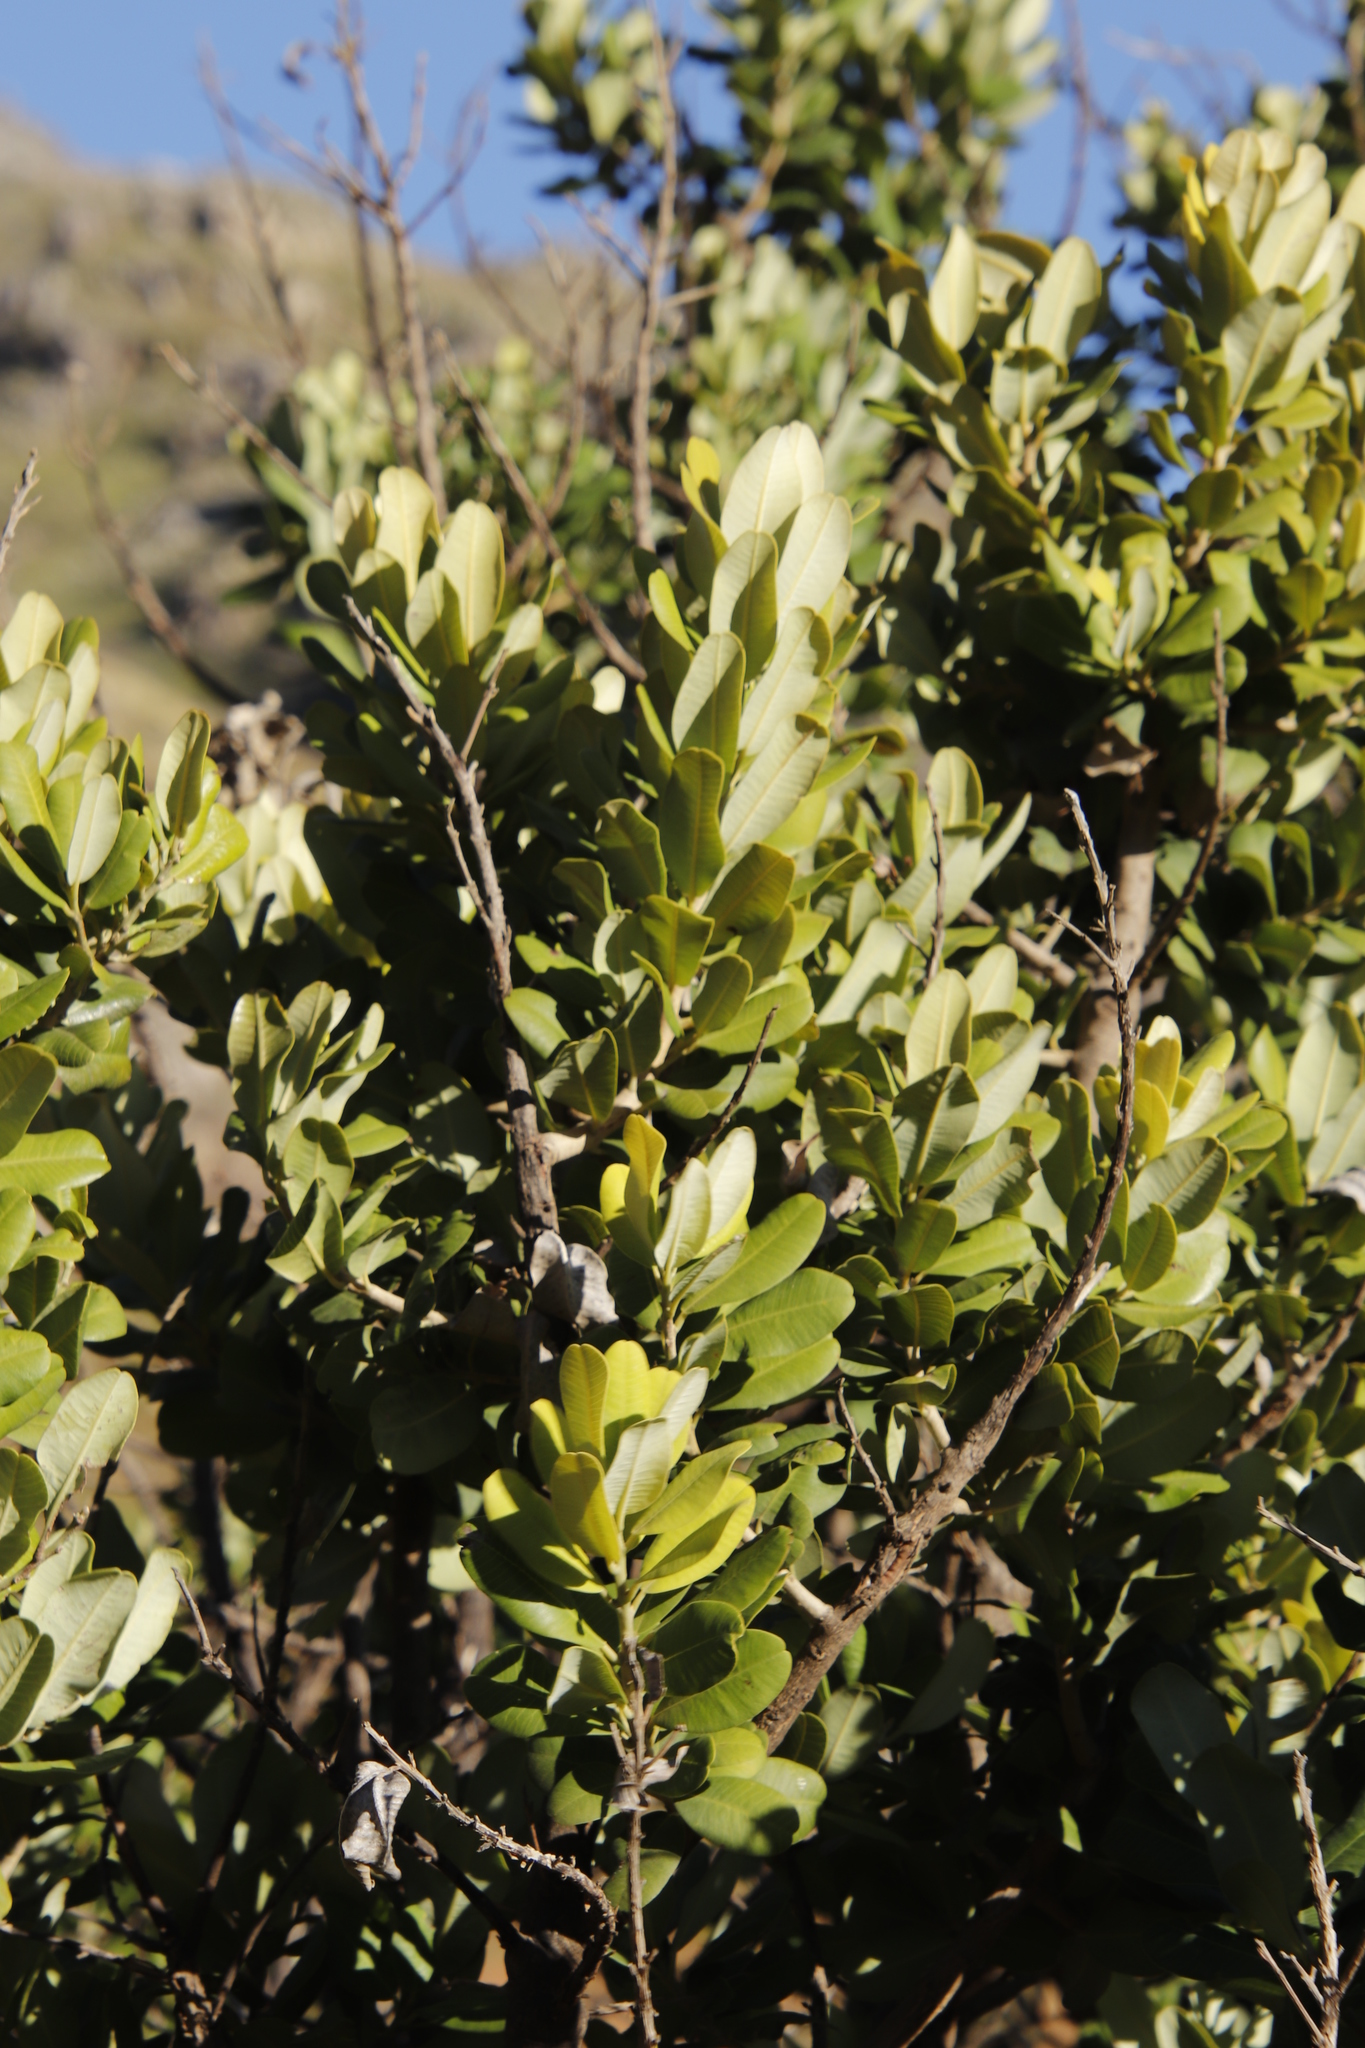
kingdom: Plantae
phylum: Tracheophyta
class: Magnoliopsida
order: Sapindales
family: Anacardiaceae
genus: Heeria
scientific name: Heeria argentea
